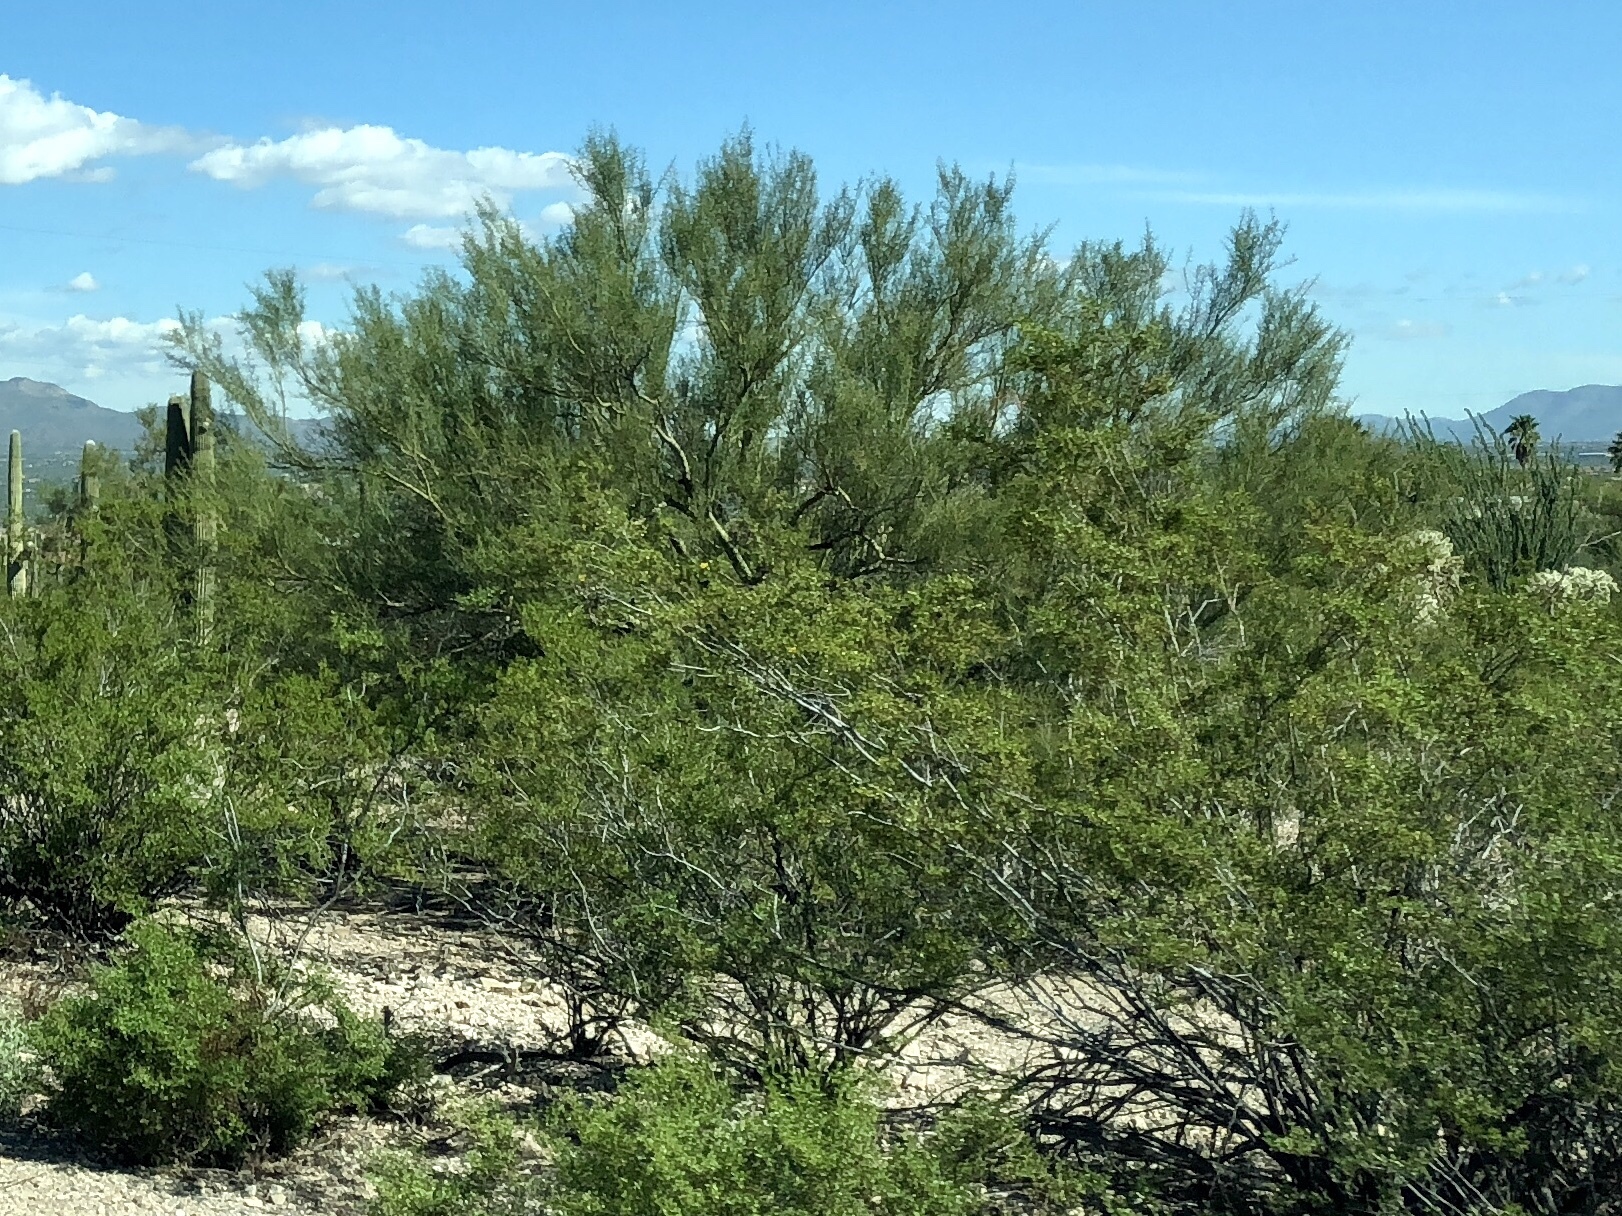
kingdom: Plantae
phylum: Tracheophyta
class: Magnoliopsida
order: Zygophyllales
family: Zygophyllaceae
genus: Larrea
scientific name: Larrea tridentata
